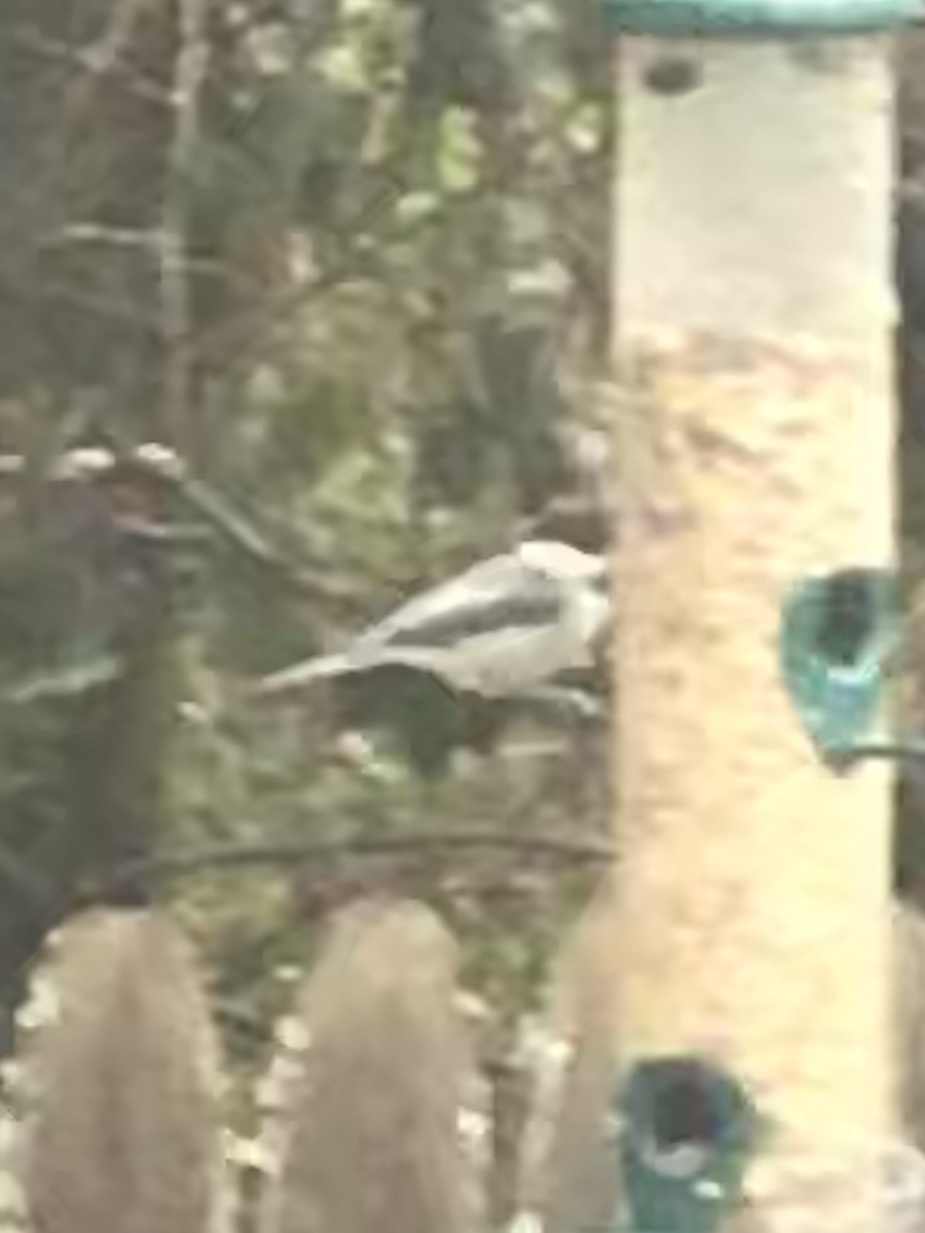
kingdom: Animalia
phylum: Chordata
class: Aves
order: Passeriformes
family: Paridae
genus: Poecile
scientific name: Poecile carolinensis
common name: Carolina chickadee
